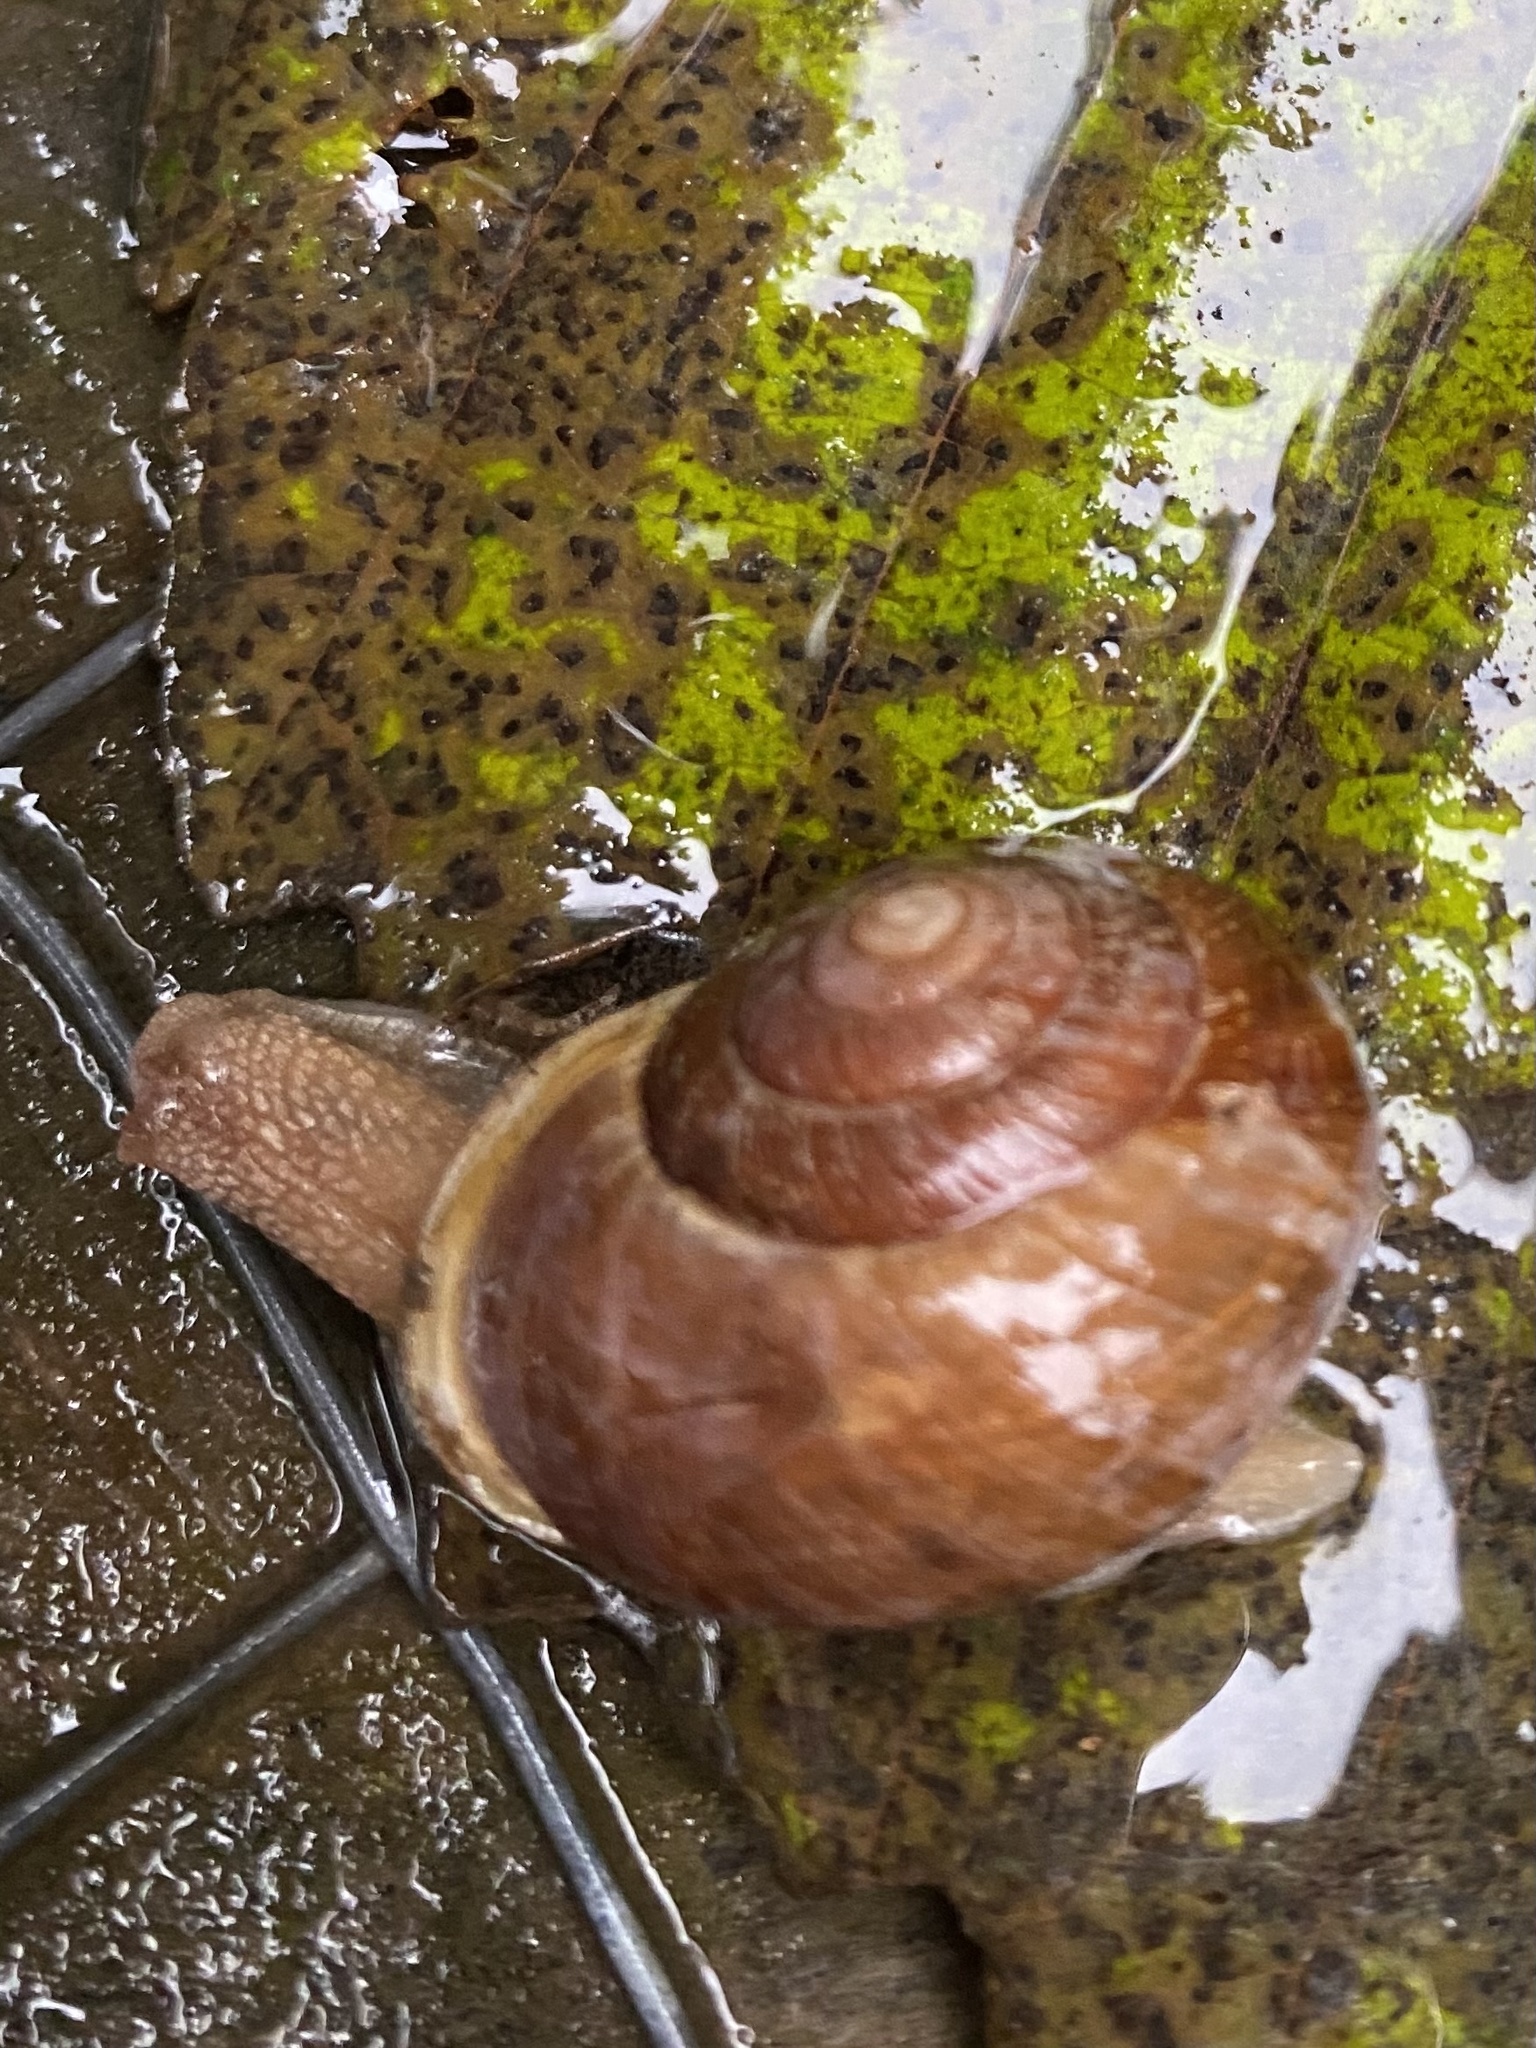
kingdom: Animalia
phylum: Mollusca
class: Gastropoda
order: Stylommatophora
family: Polygyridae
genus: Allogona
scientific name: Allogona townsendiana
